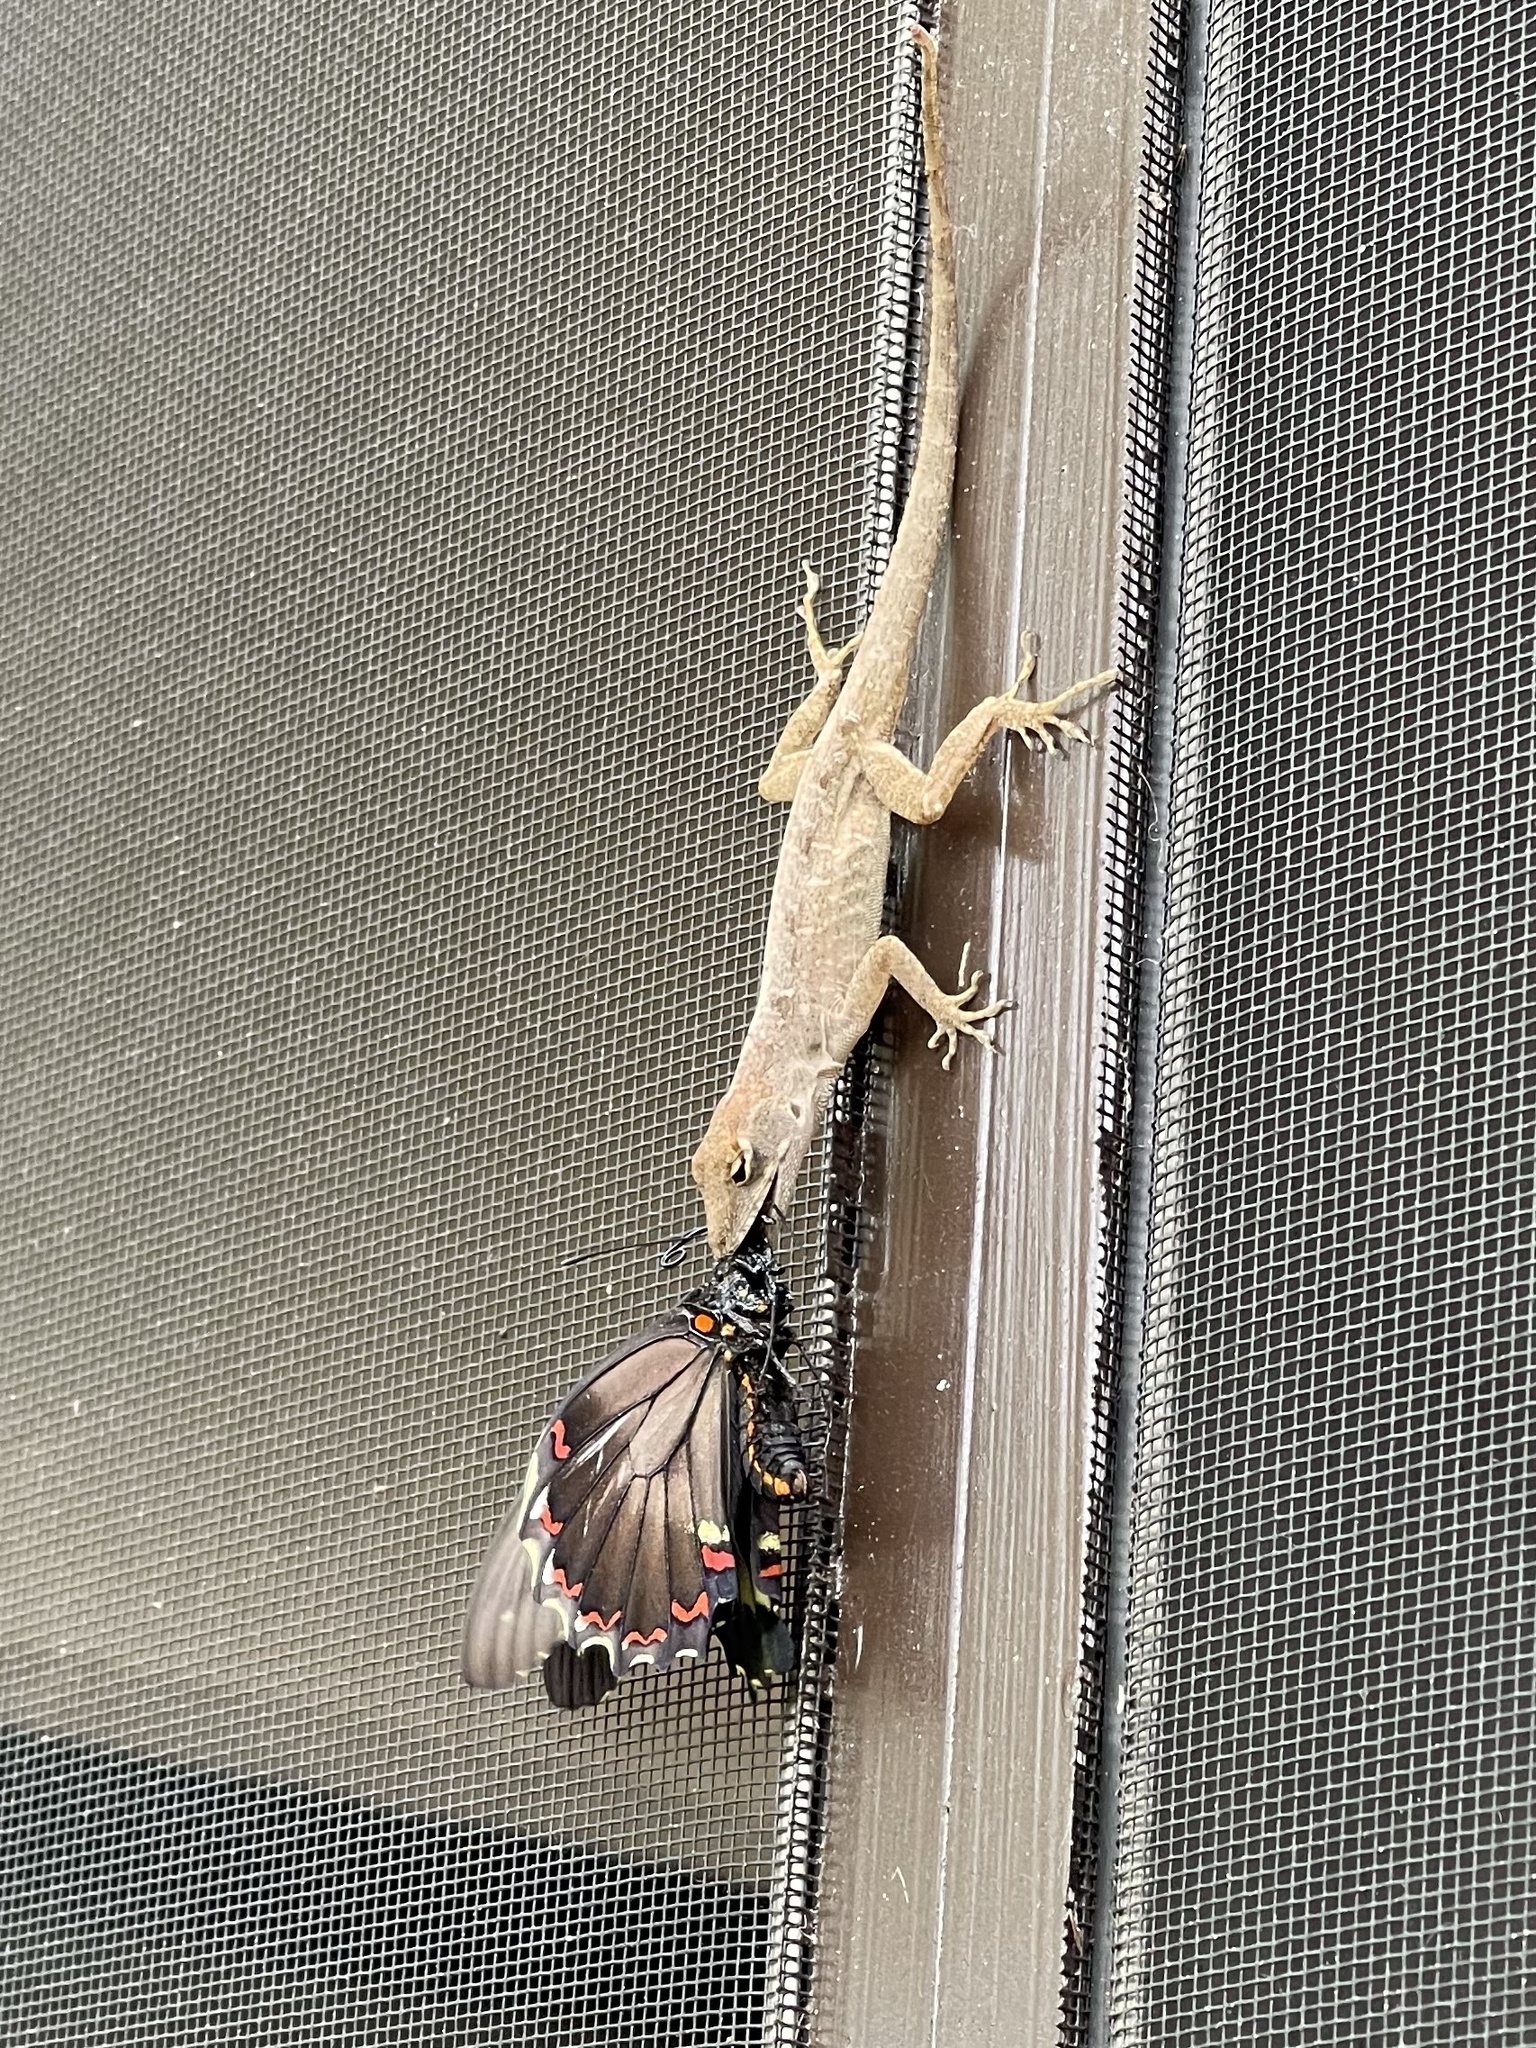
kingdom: Animalia
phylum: Chordata
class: Squamata
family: Dactyloidae
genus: Anolis
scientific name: Anolis sagrei
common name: Brown anole
